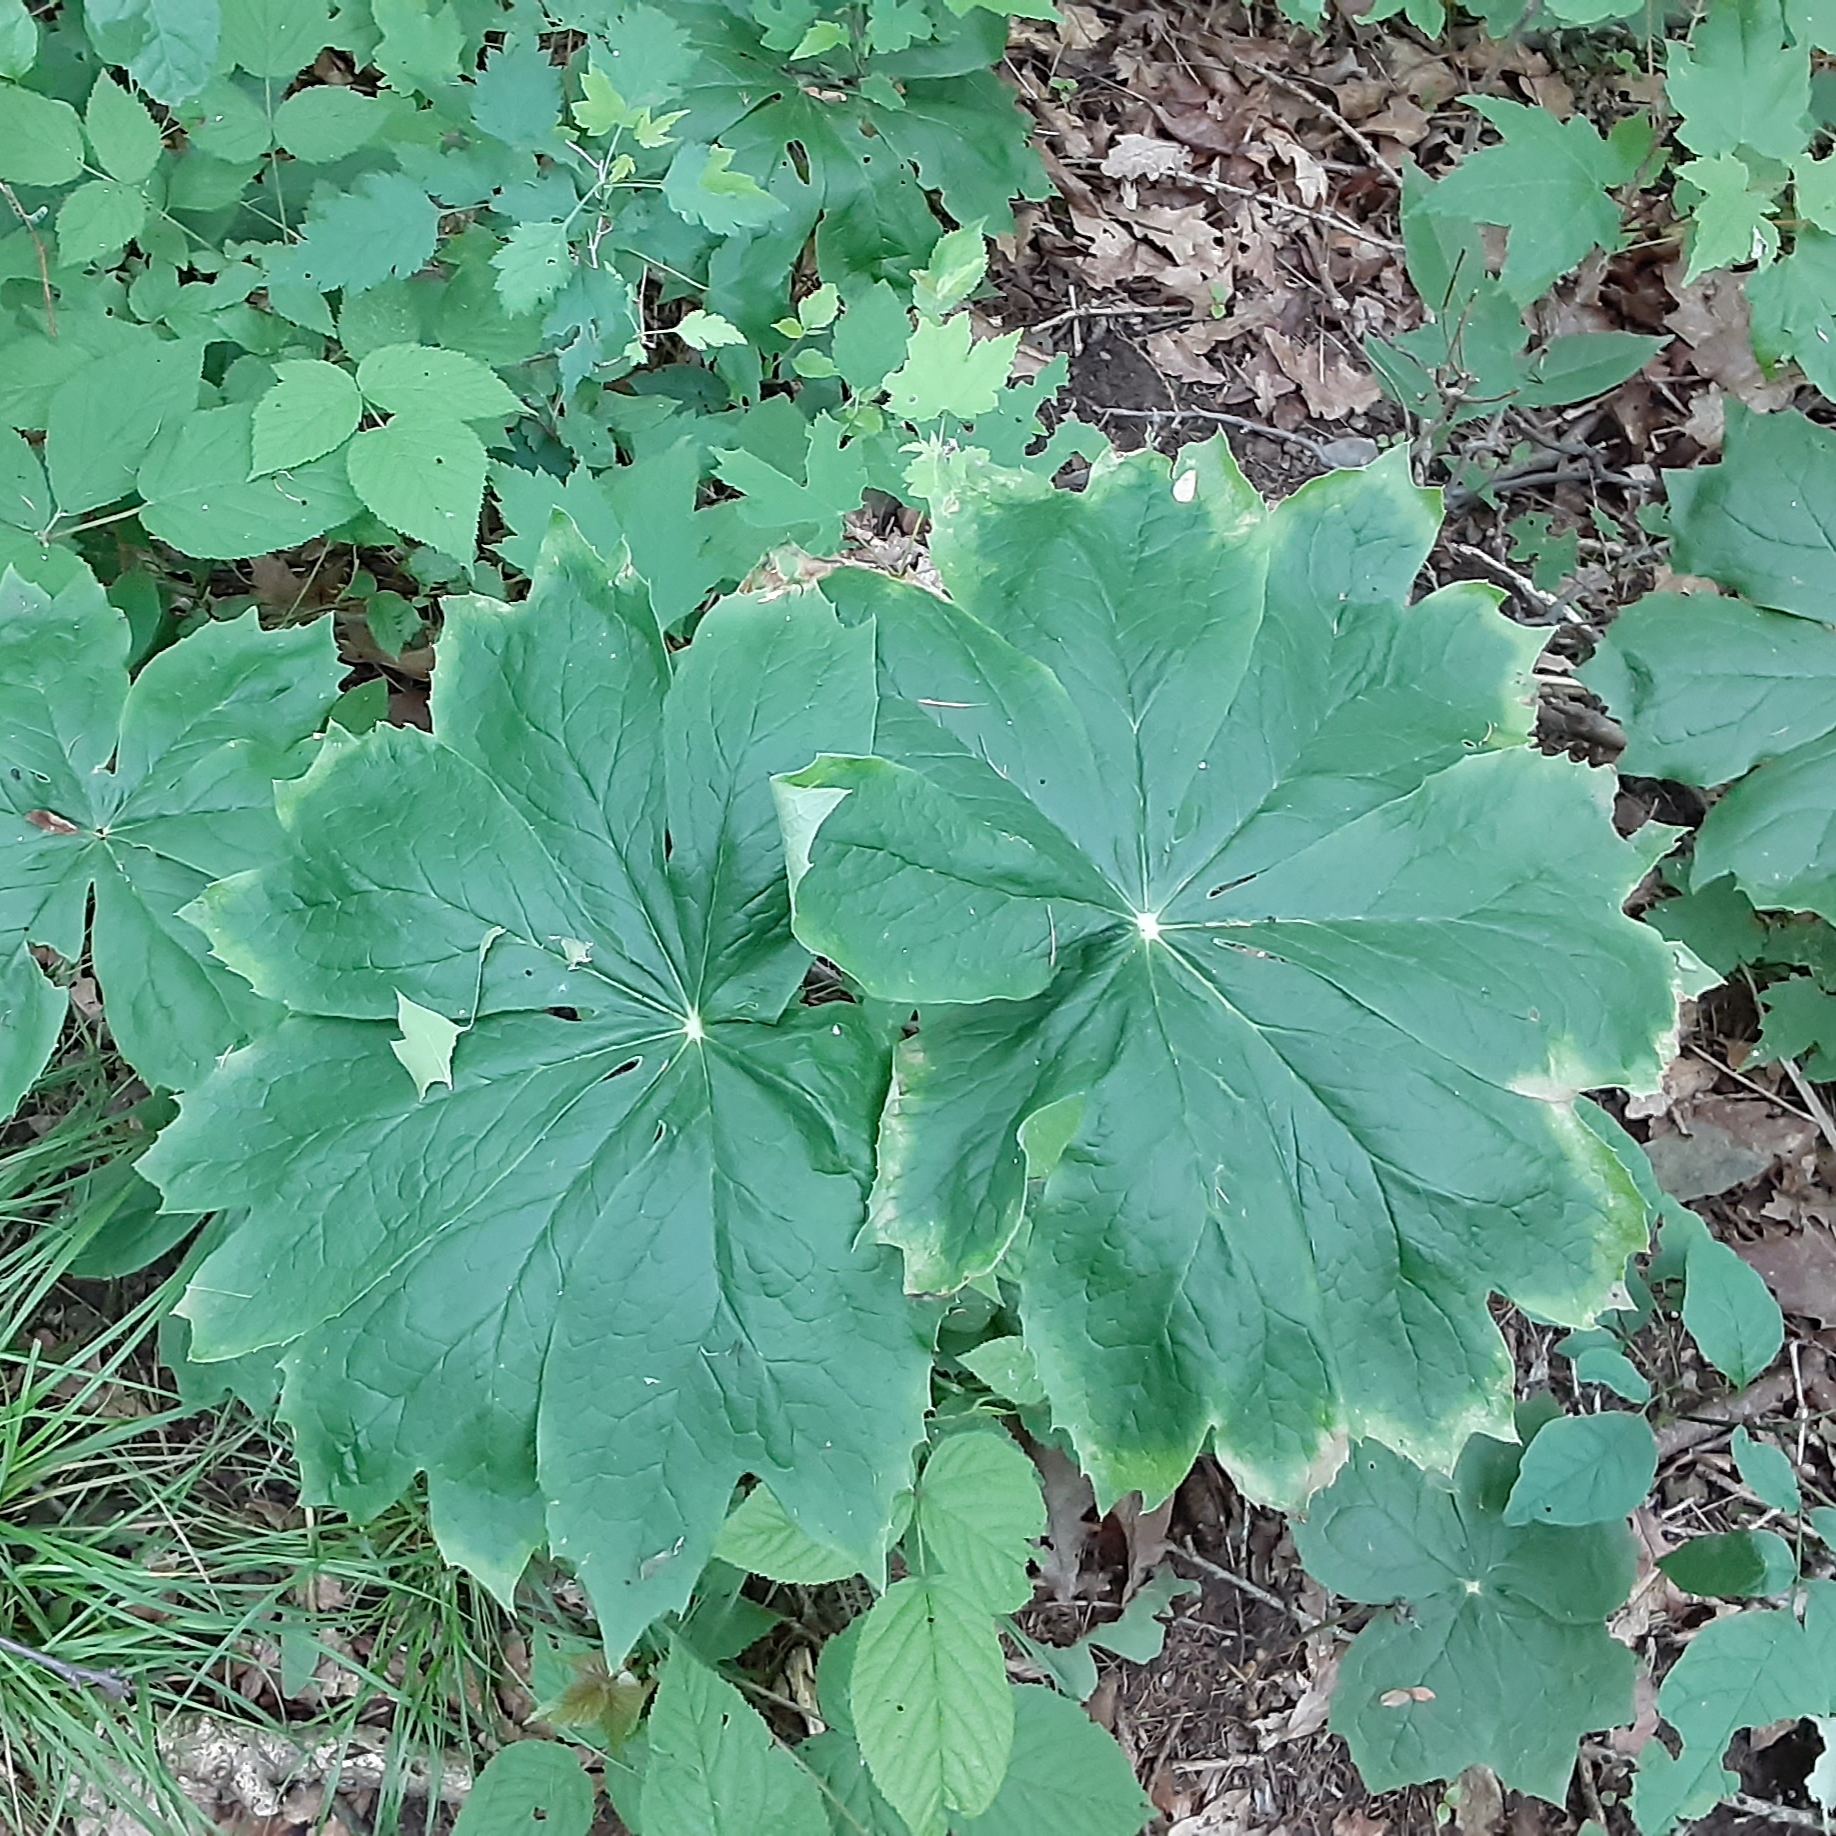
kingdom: Plantae
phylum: Tracheophyta
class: Magnoliopsida
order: Ranunculales
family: Berberidaceae
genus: Podophyllum
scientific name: Podophyllum peltatum
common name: Wild mandrake
